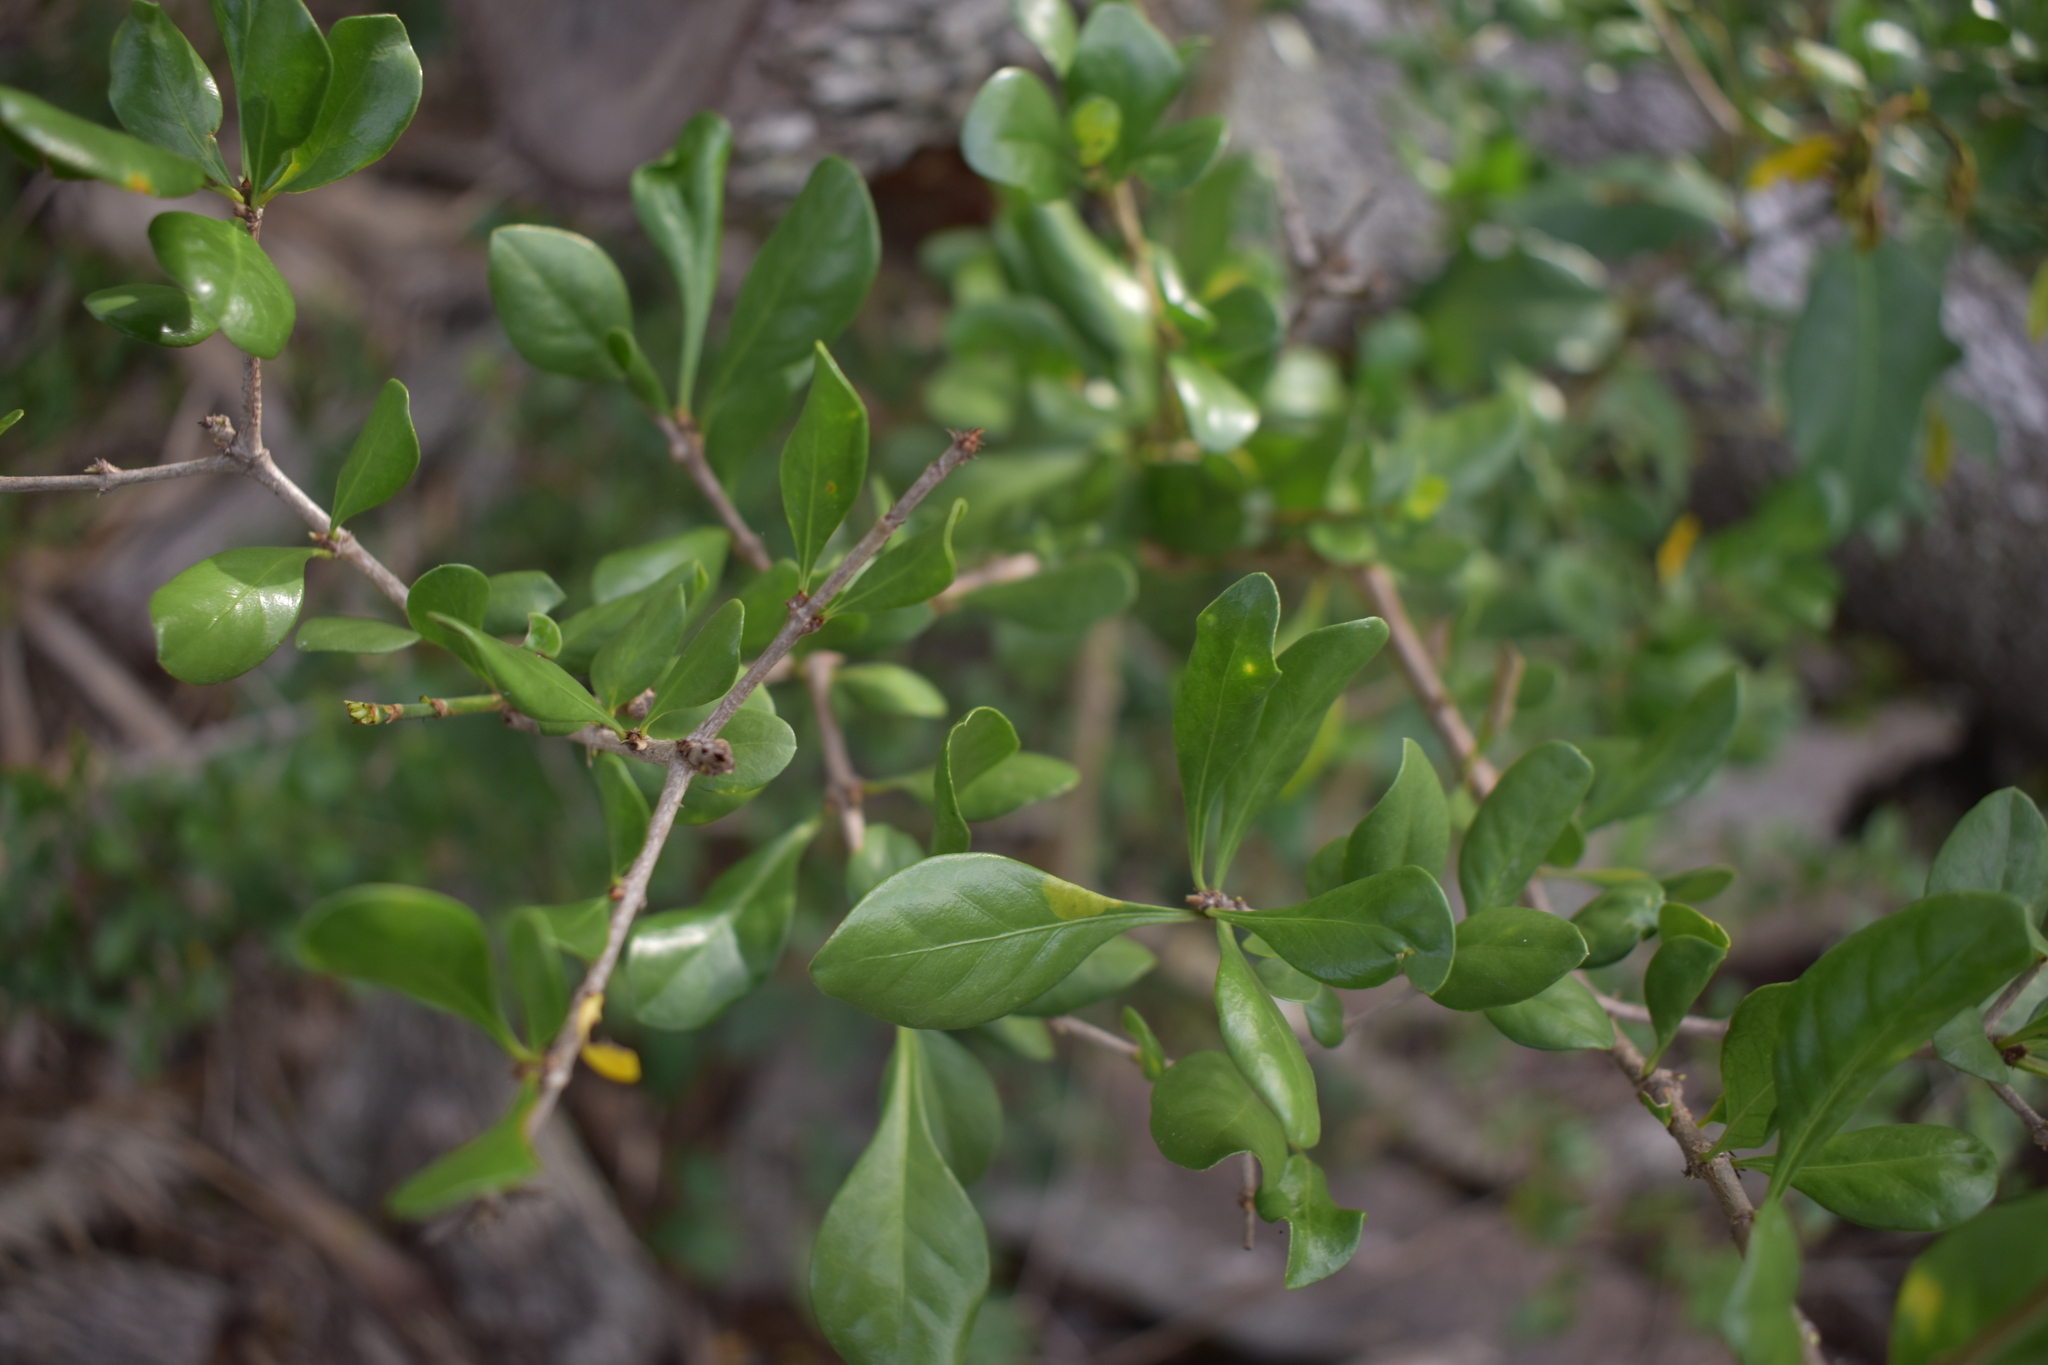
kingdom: Plantae
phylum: Tracheophyta
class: Magnoliopsida
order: Gentianales
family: Rubiaceae
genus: Randia
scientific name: Randia aculeata
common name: Inkberry
